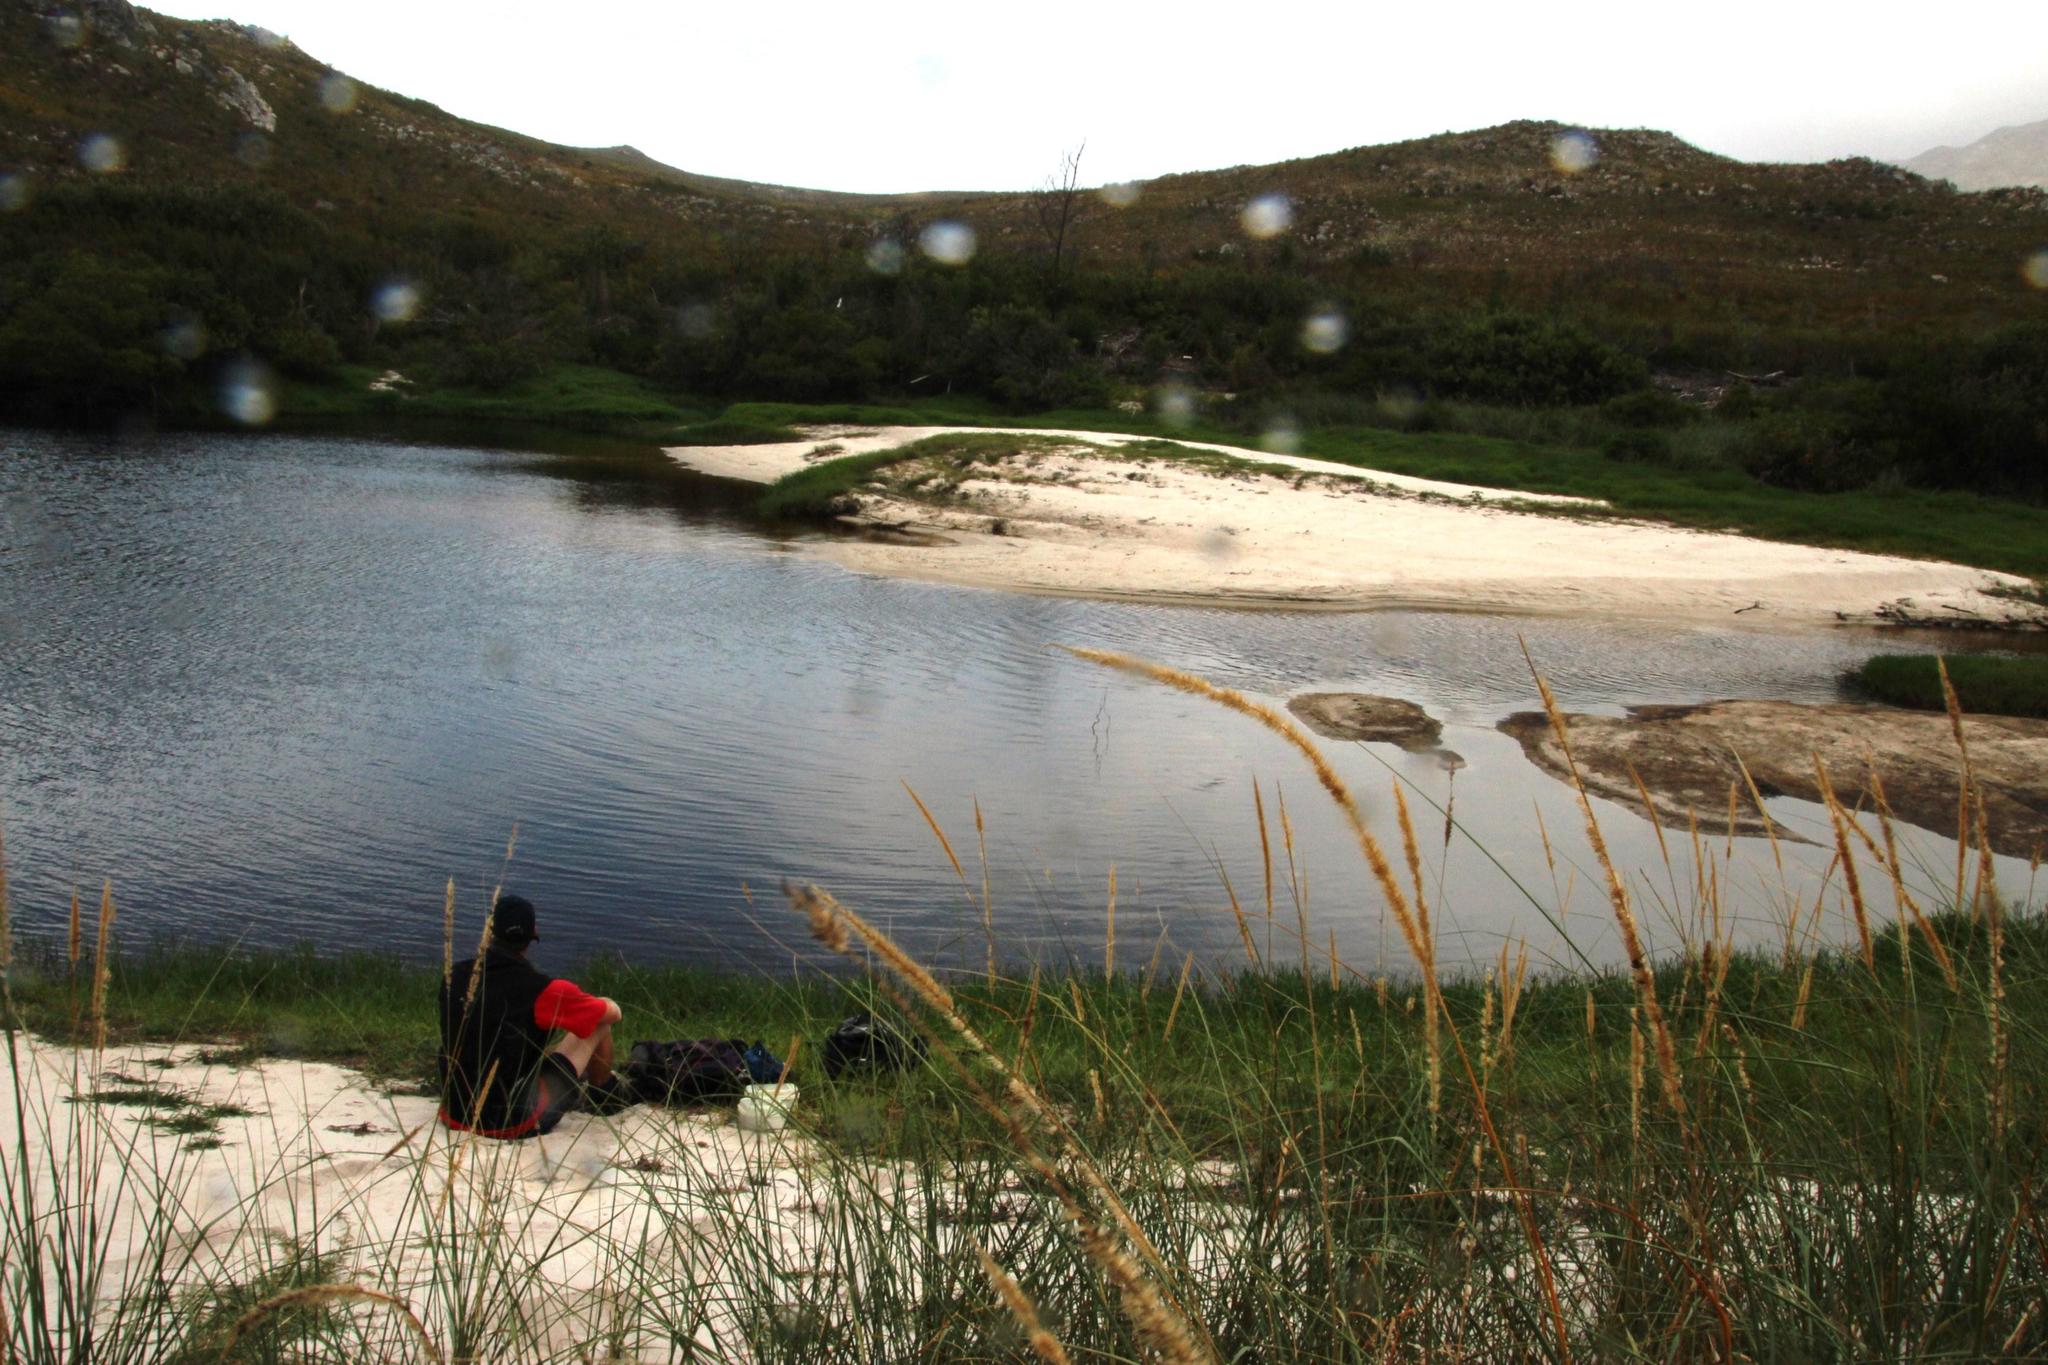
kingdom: Plantae
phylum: Tracheophyta
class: Liliopsida
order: Poales
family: Poaceae
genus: Cenchrus
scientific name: Cenchrus caudatus
